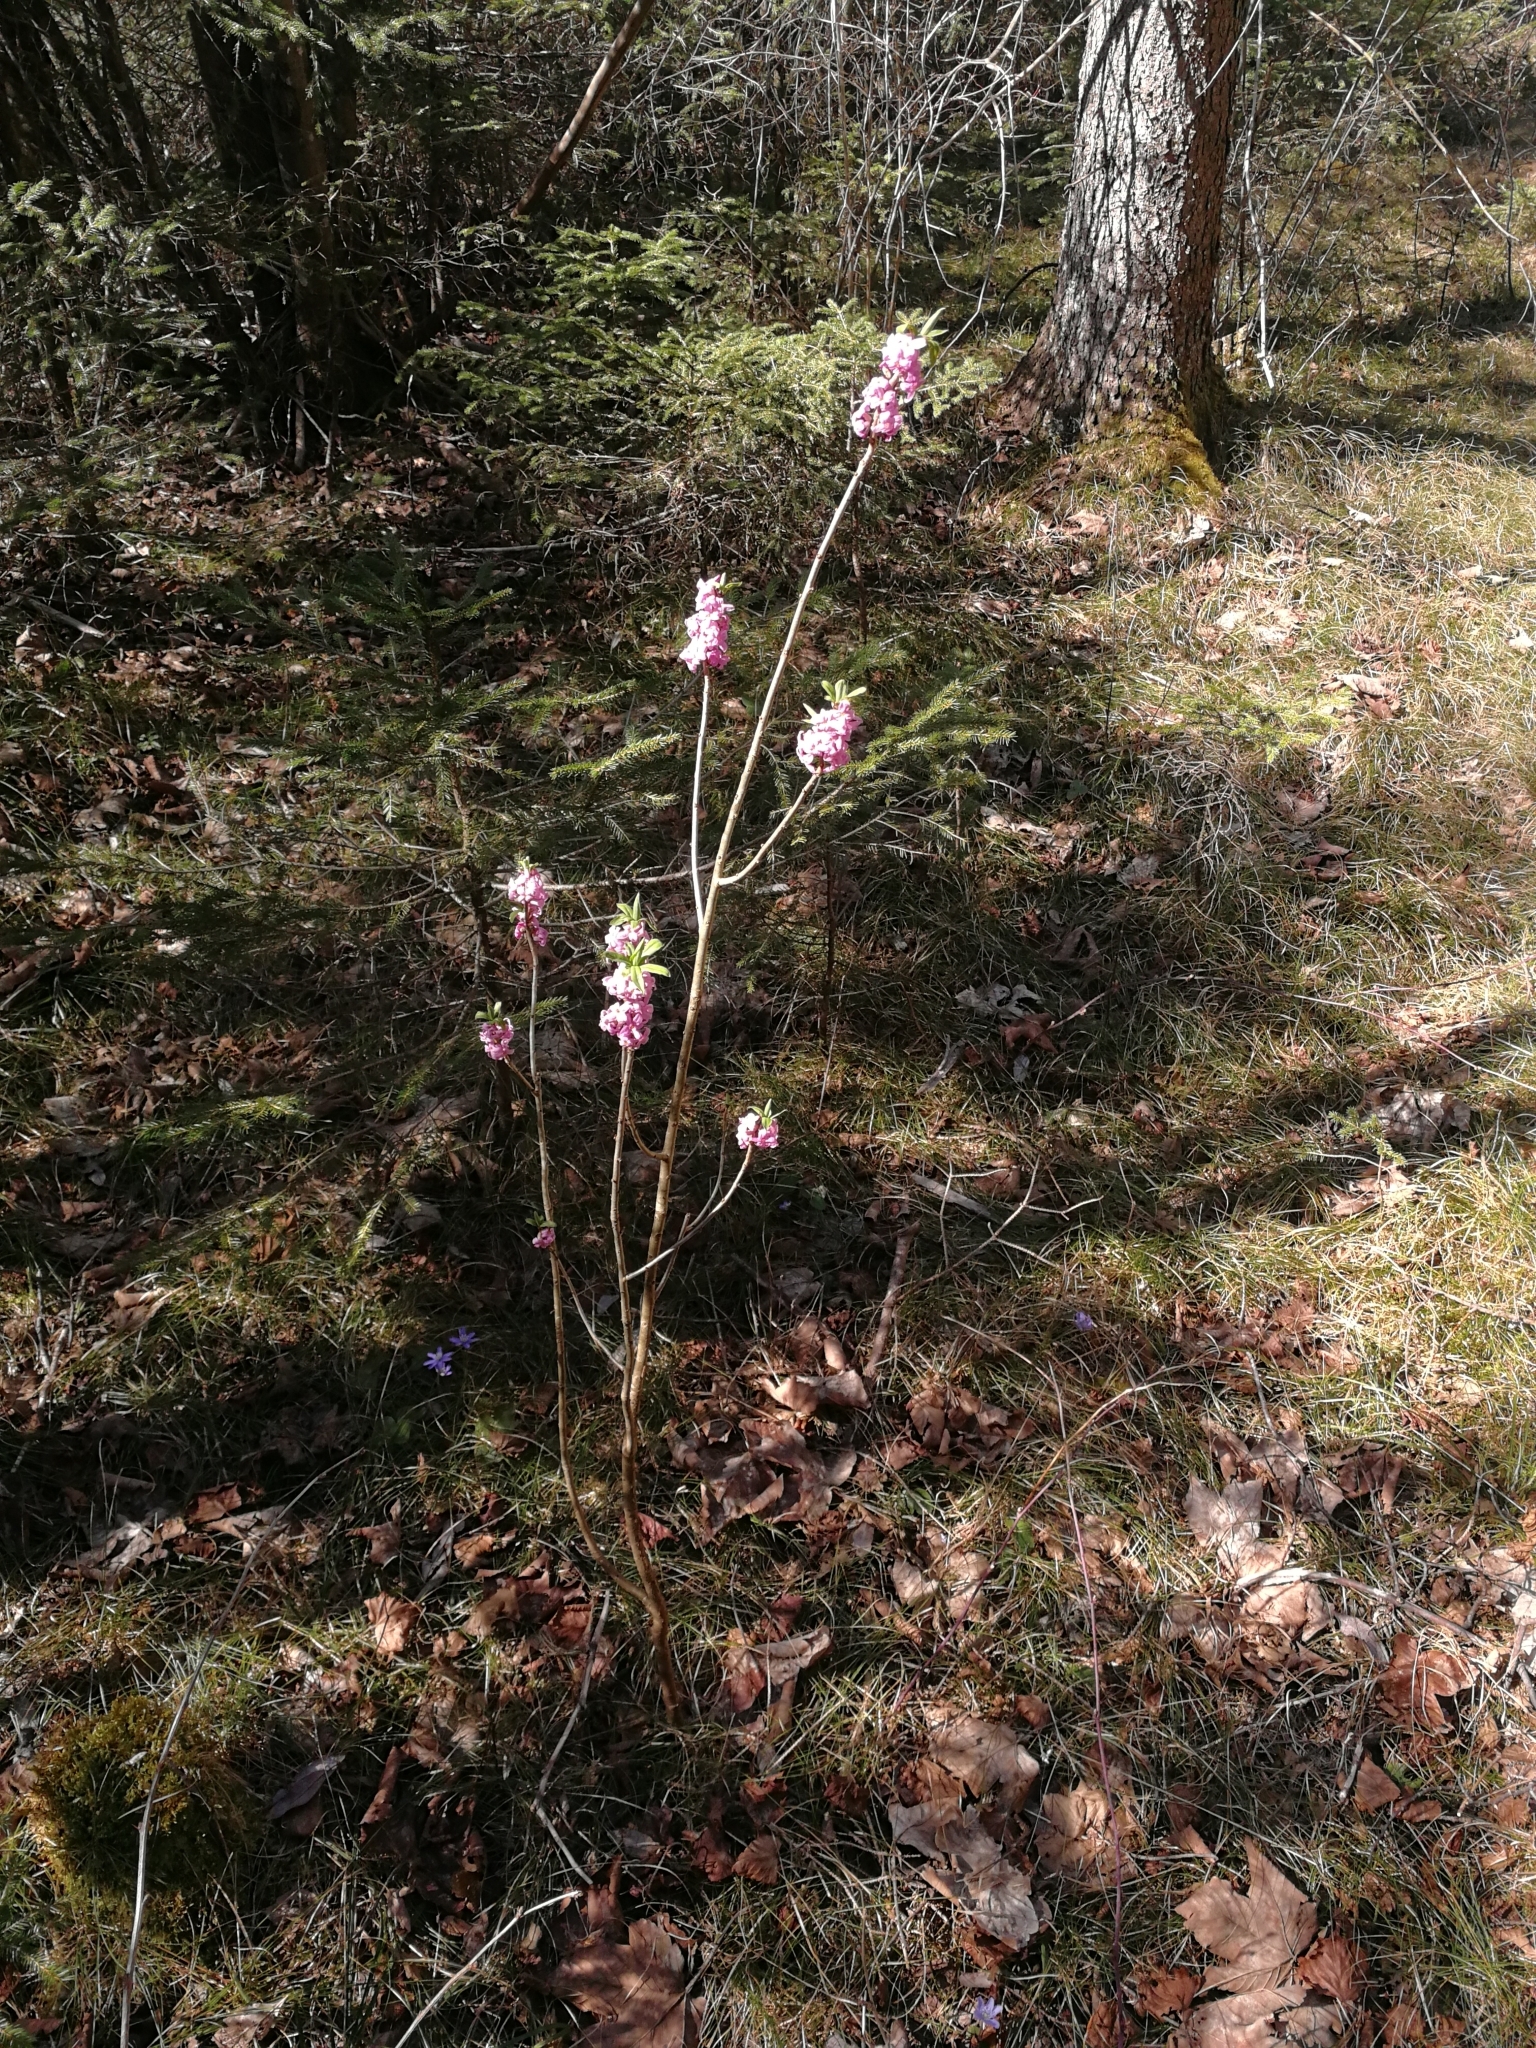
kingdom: Plantae
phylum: Tracheophyta
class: Magnoliopsida
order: Malvales
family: Thymelaeaceae
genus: Daphne
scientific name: Daphne mezereum
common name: Mezereon
